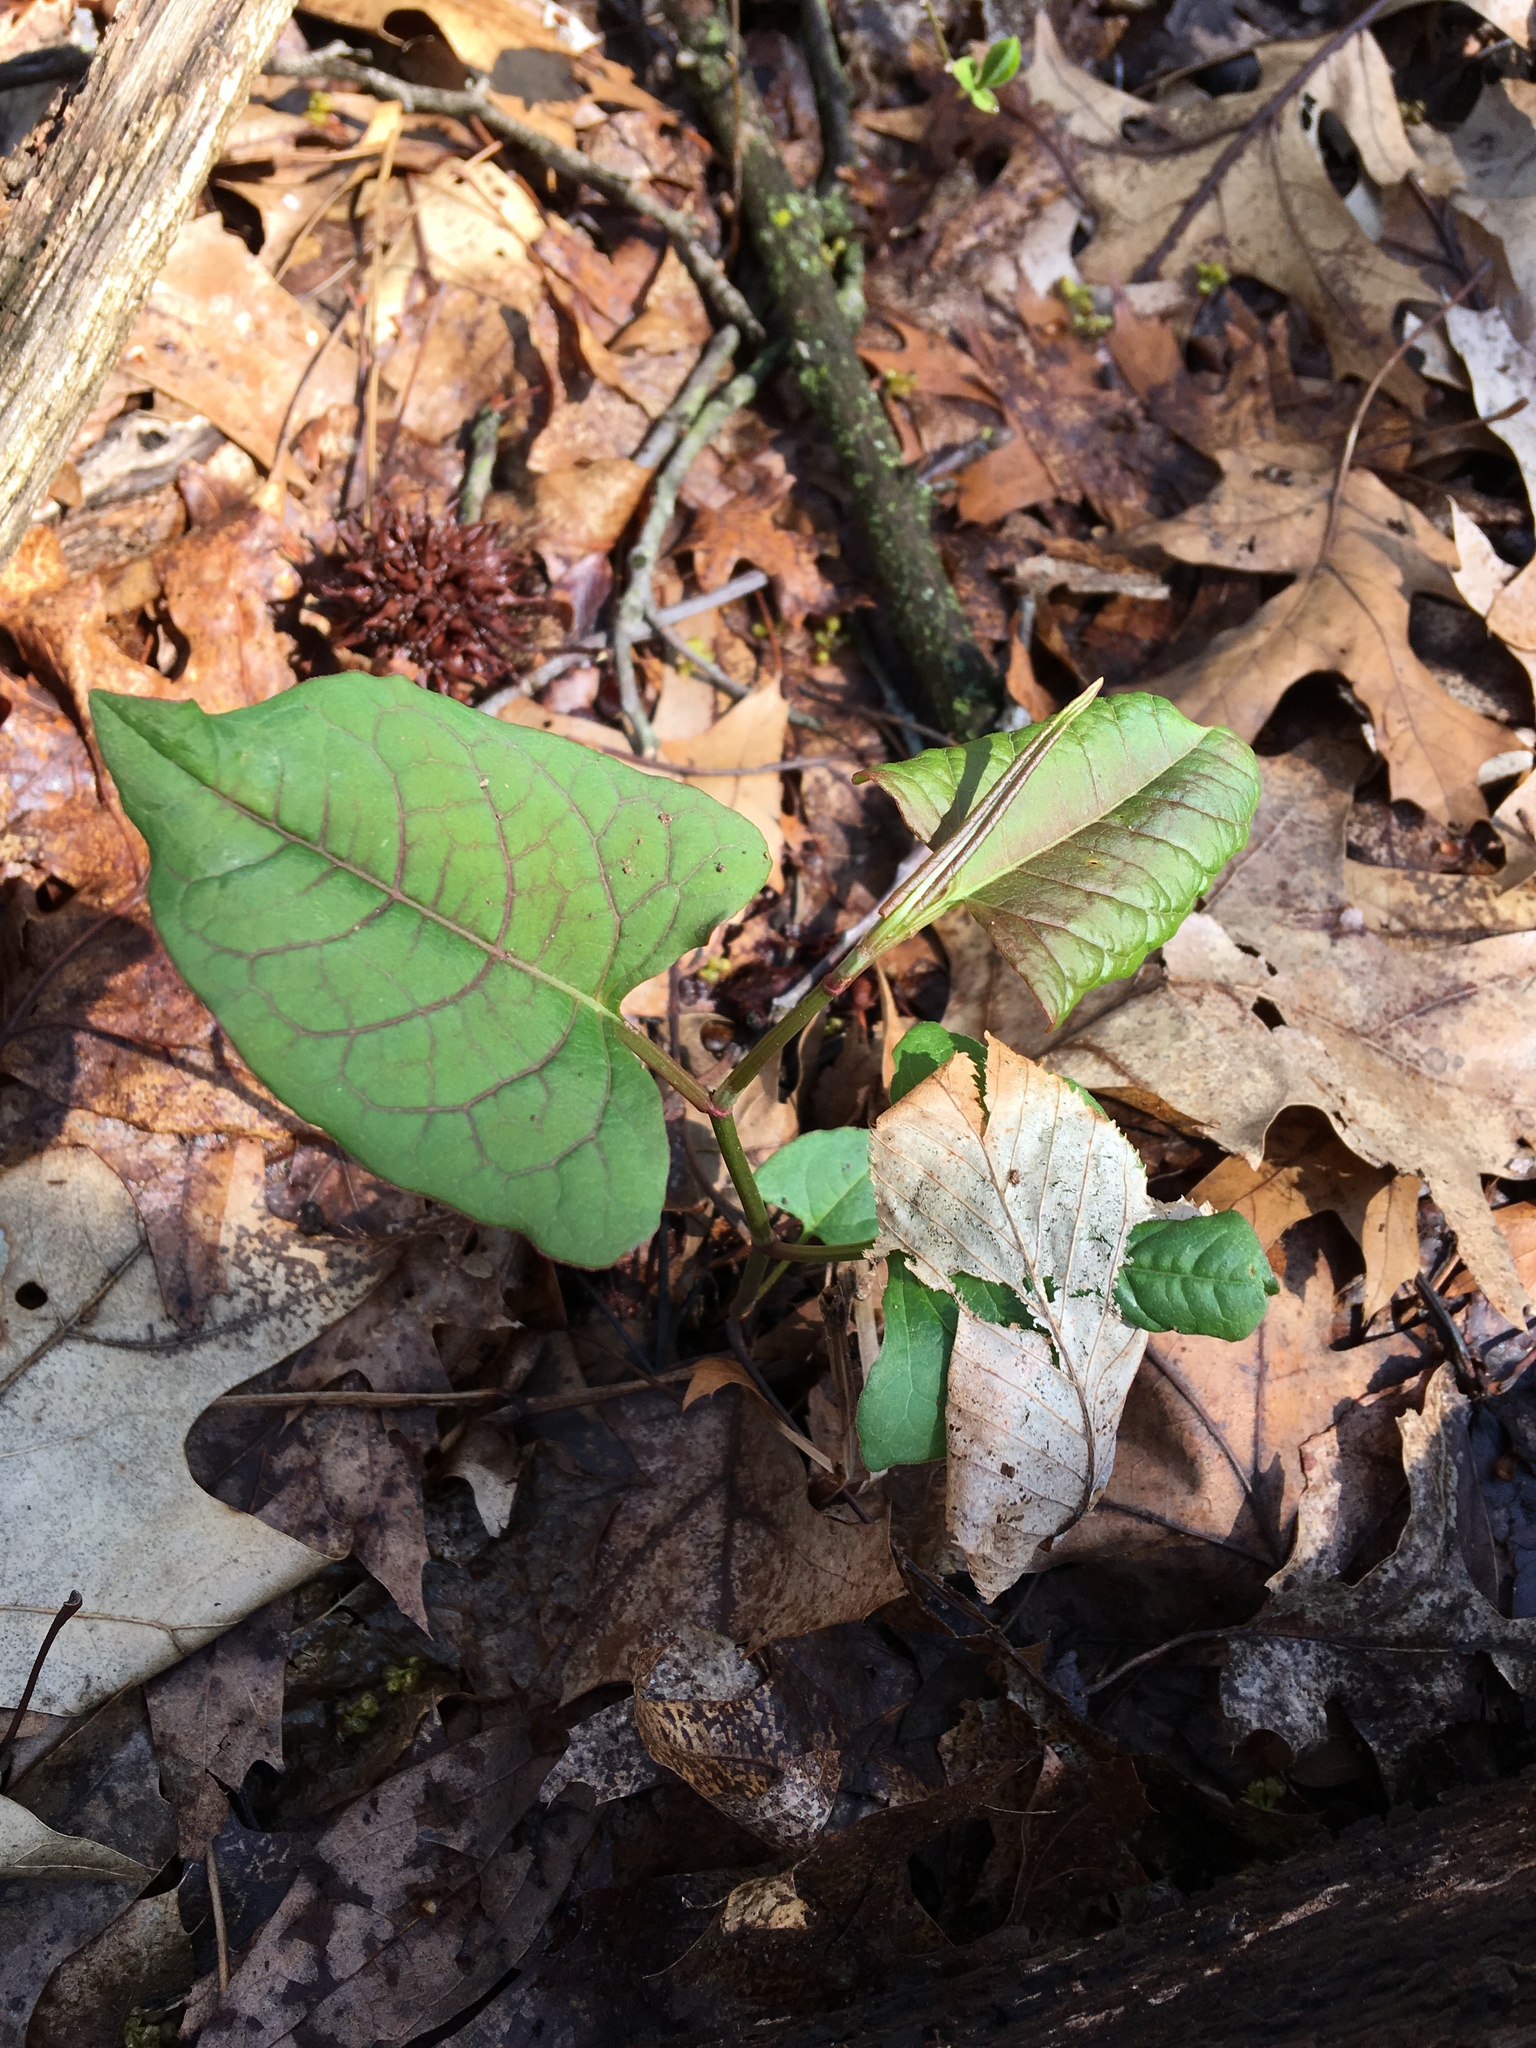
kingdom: Plantae
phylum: Tracheophyta
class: Magnoliopsida
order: Caryophyllales
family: Polygonaceae
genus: Reynoutria
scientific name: Reynoutria japonica
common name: Japanese knotweed
